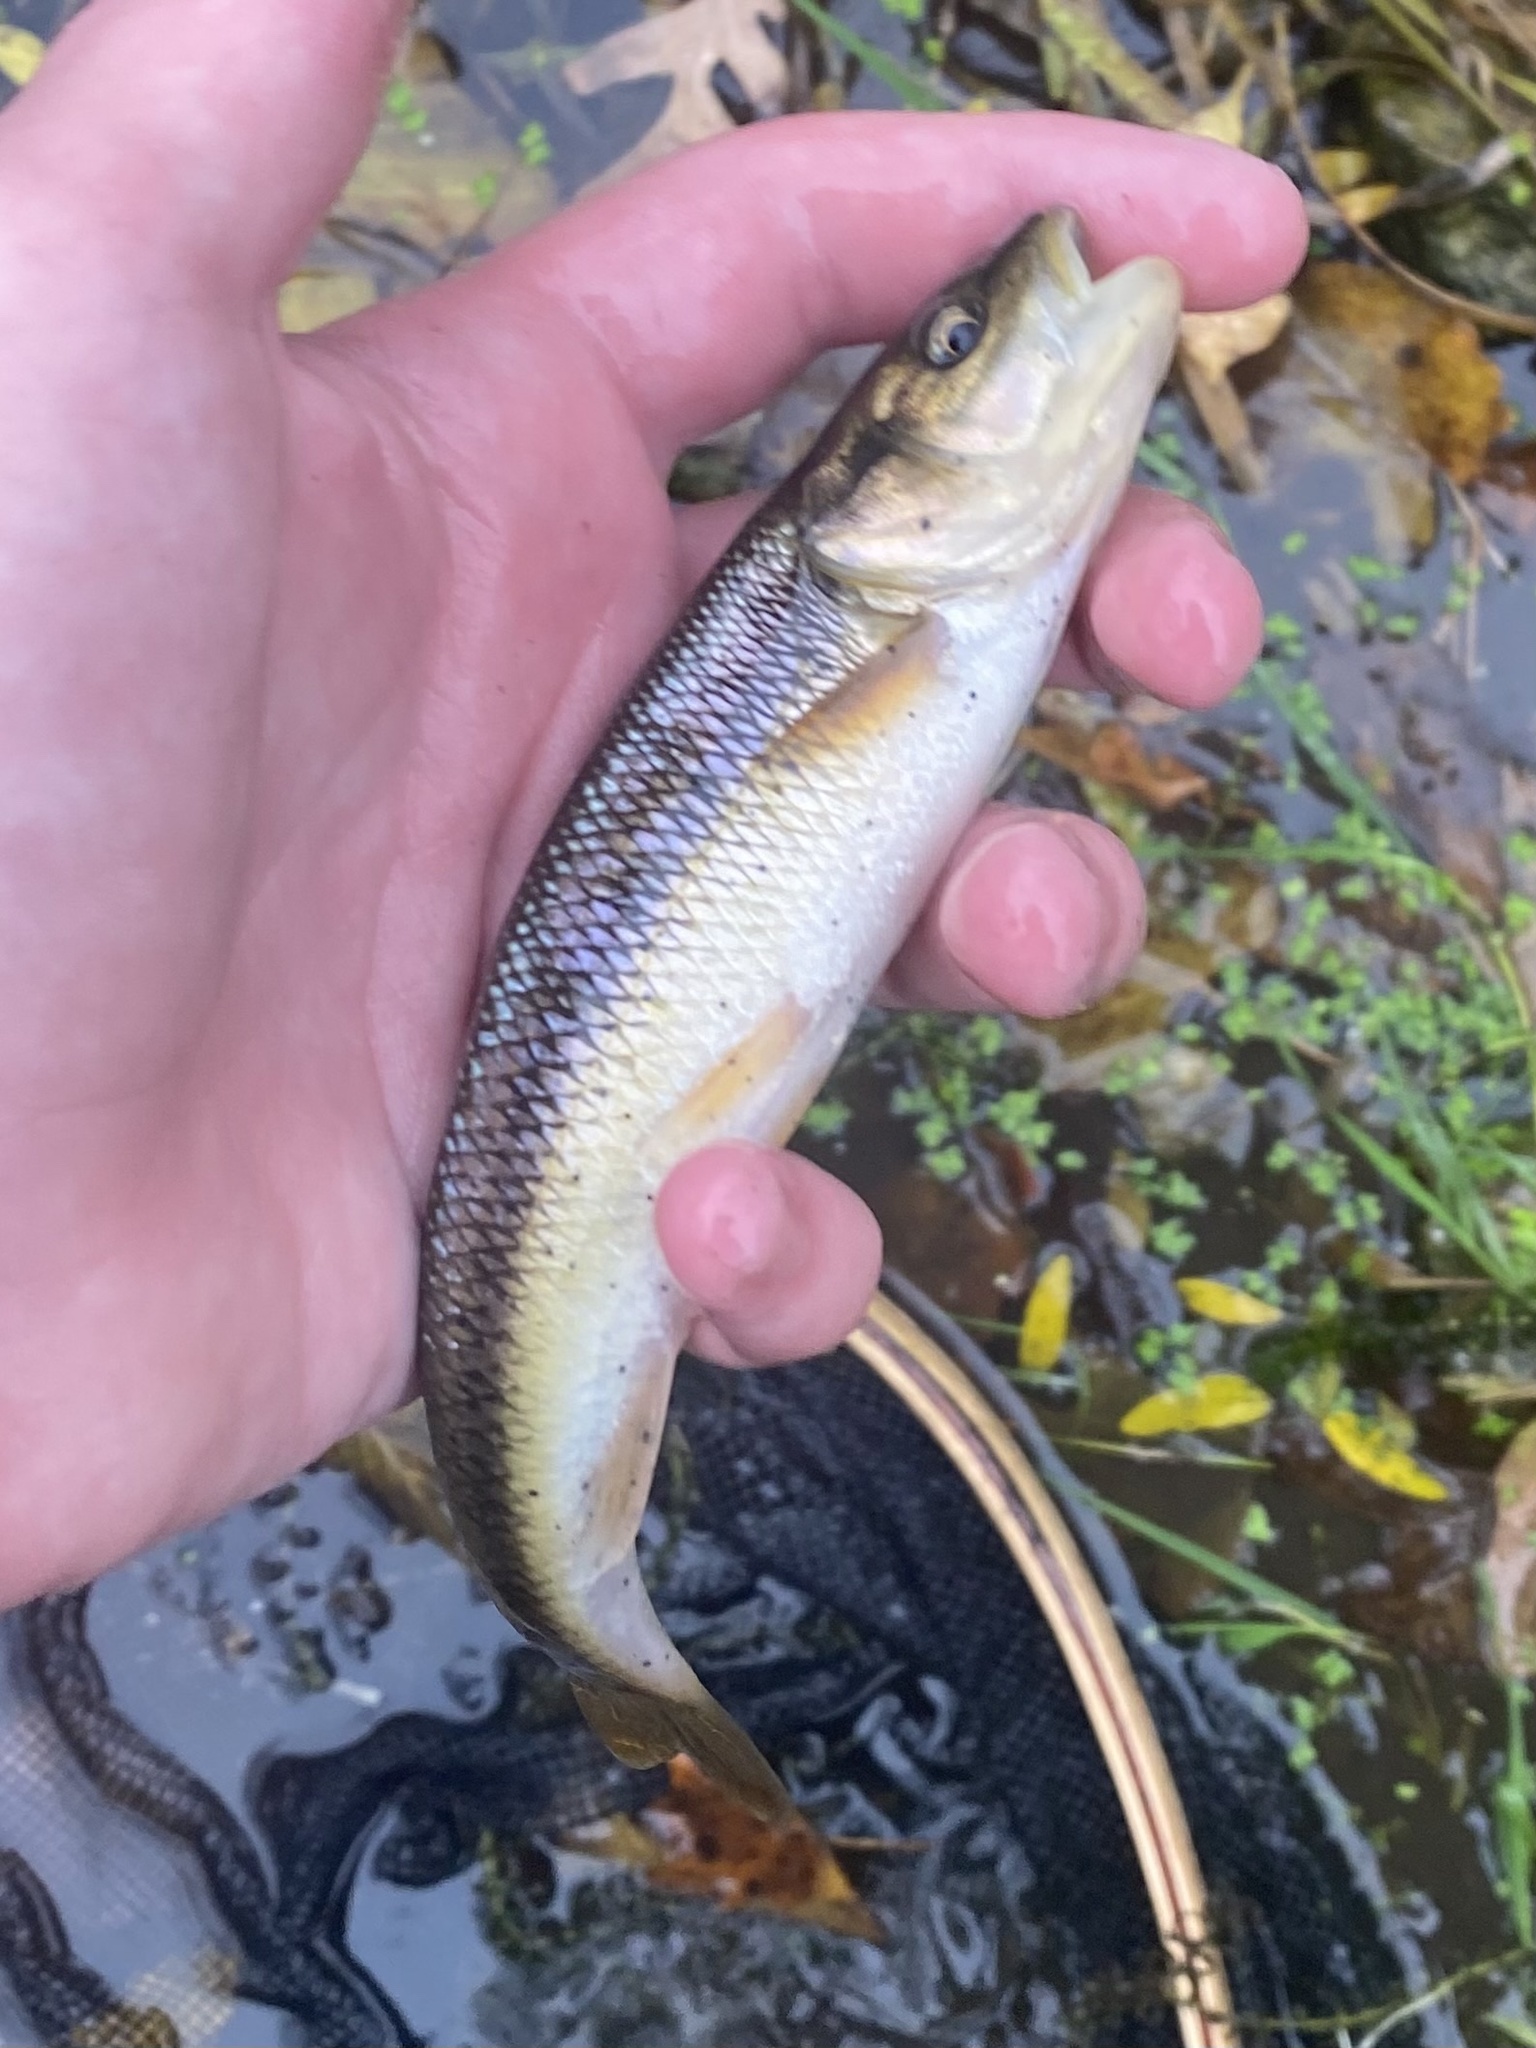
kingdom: Animalia
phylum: Chordata
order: Cypriniformes
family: Cyprinidae
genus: Semotilus
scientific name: Semotilus atromaculatus
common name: Creek chub
